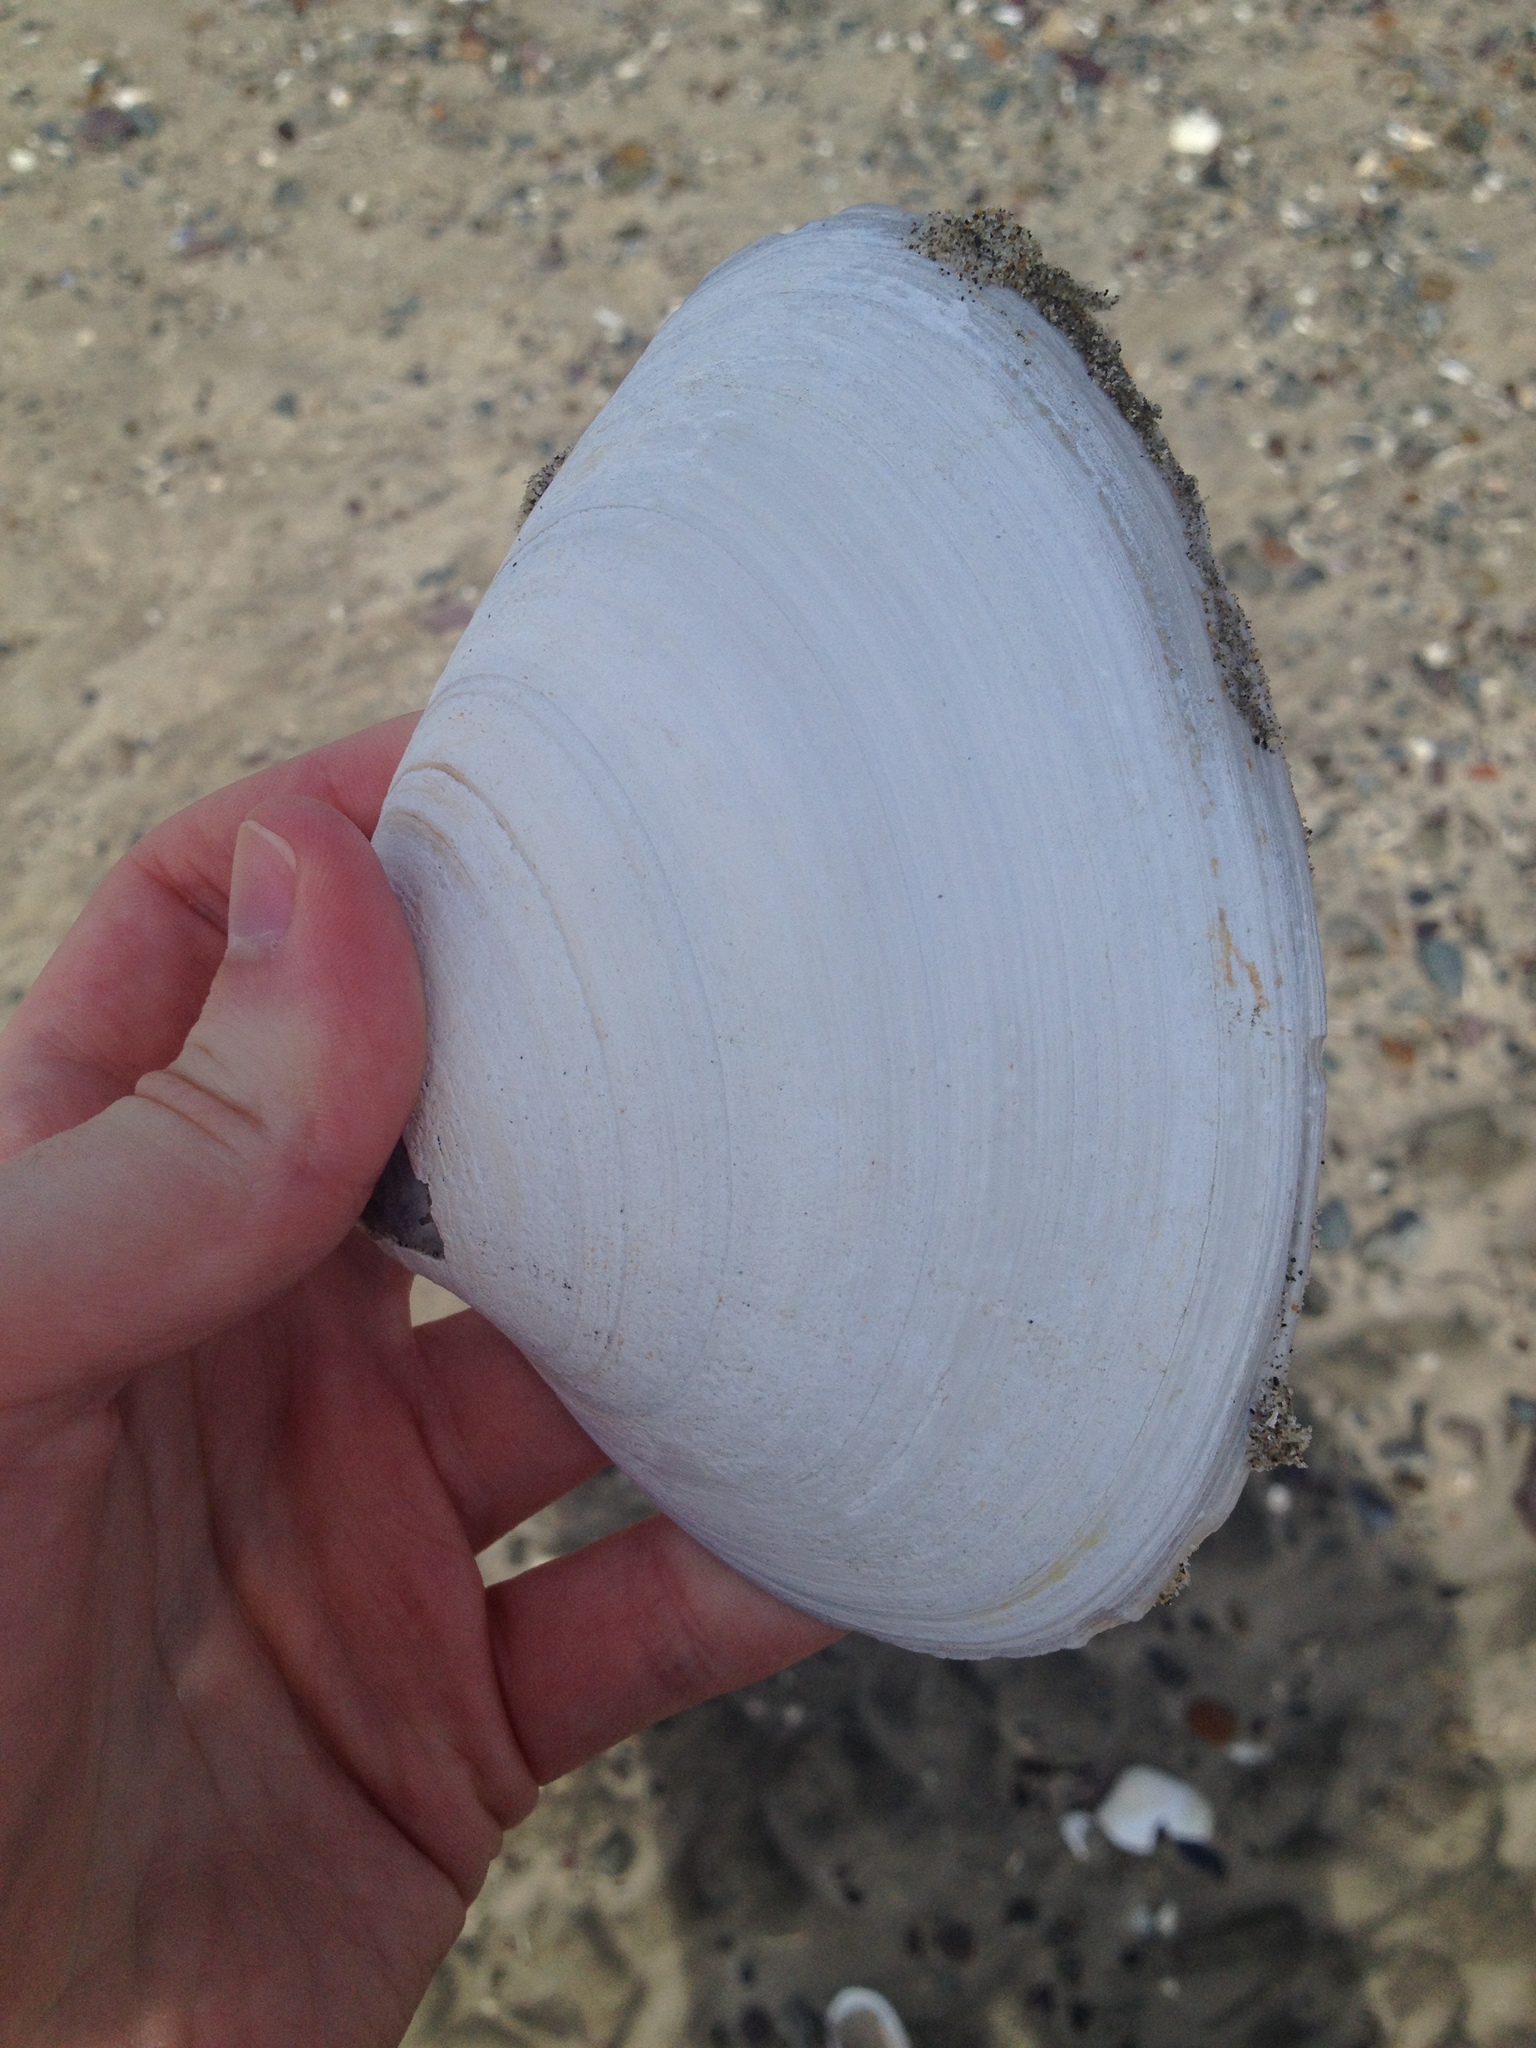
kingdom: Animalia
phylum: Mollusca
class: Bivalvia
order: Venerida
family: Mactridae
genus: Spisula
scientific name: Spisula solidissima
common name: Atlantic surf clam
